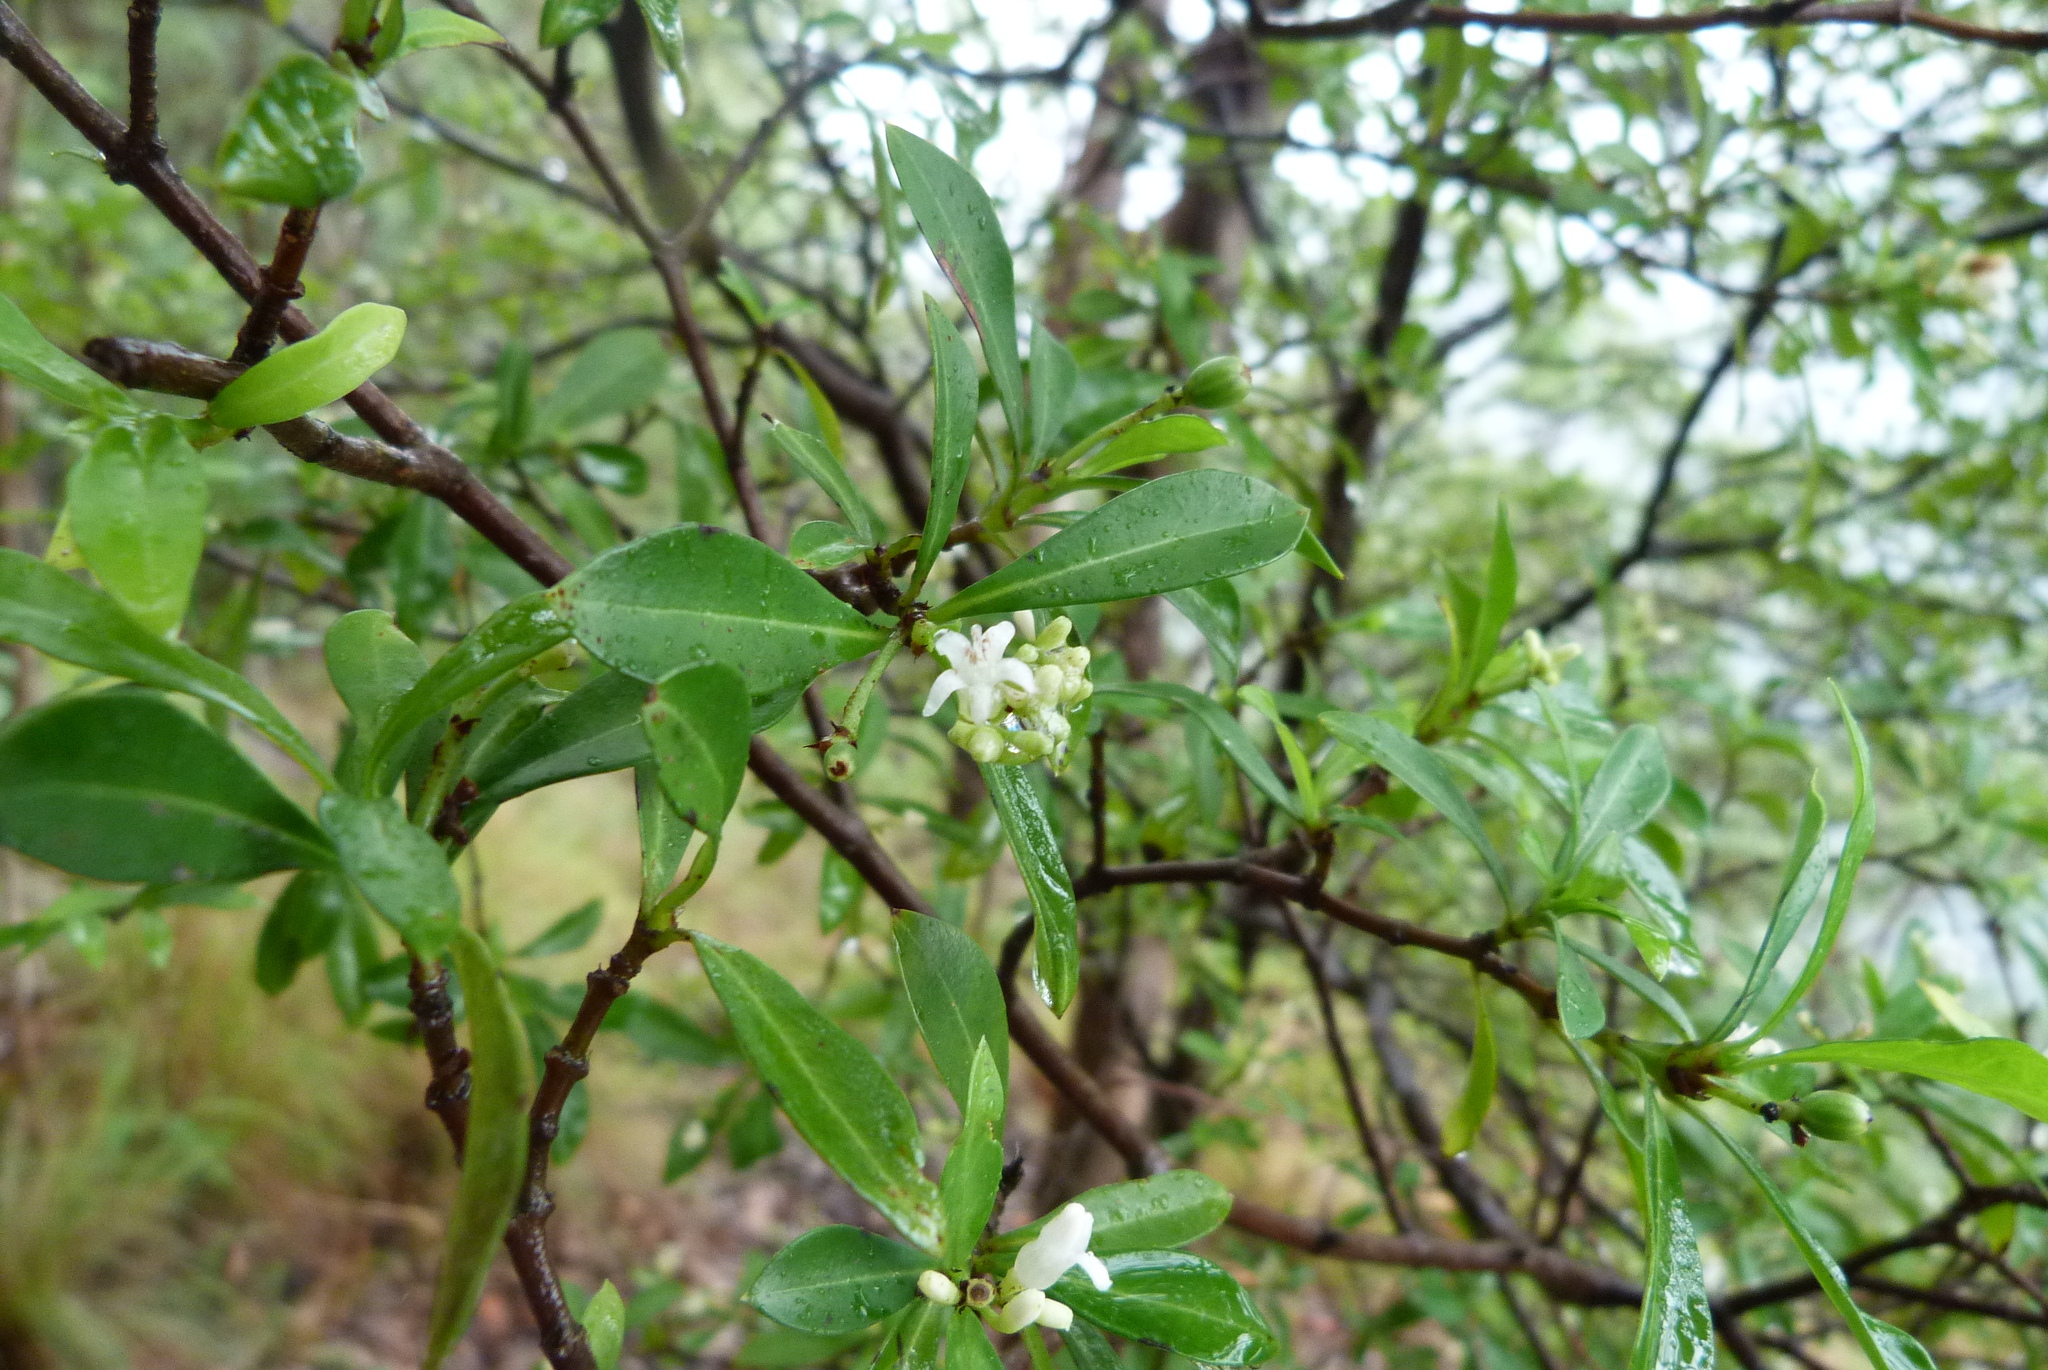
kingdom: Plantae
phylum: Tracheophyta
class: Magnoliopsida
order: Gentianales
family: Rubiaceae
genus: Psychotria
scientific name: Psychotria daphnoides
